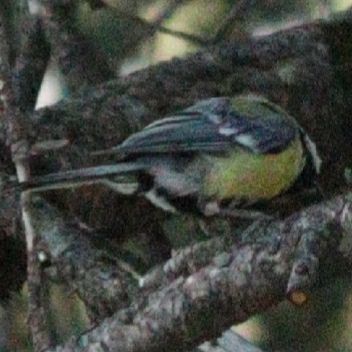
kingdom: Animalia
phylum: Chordata
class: Aves
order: Passeriformes
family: Paridae
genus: Parus
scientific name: Parus major
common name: Great tit
